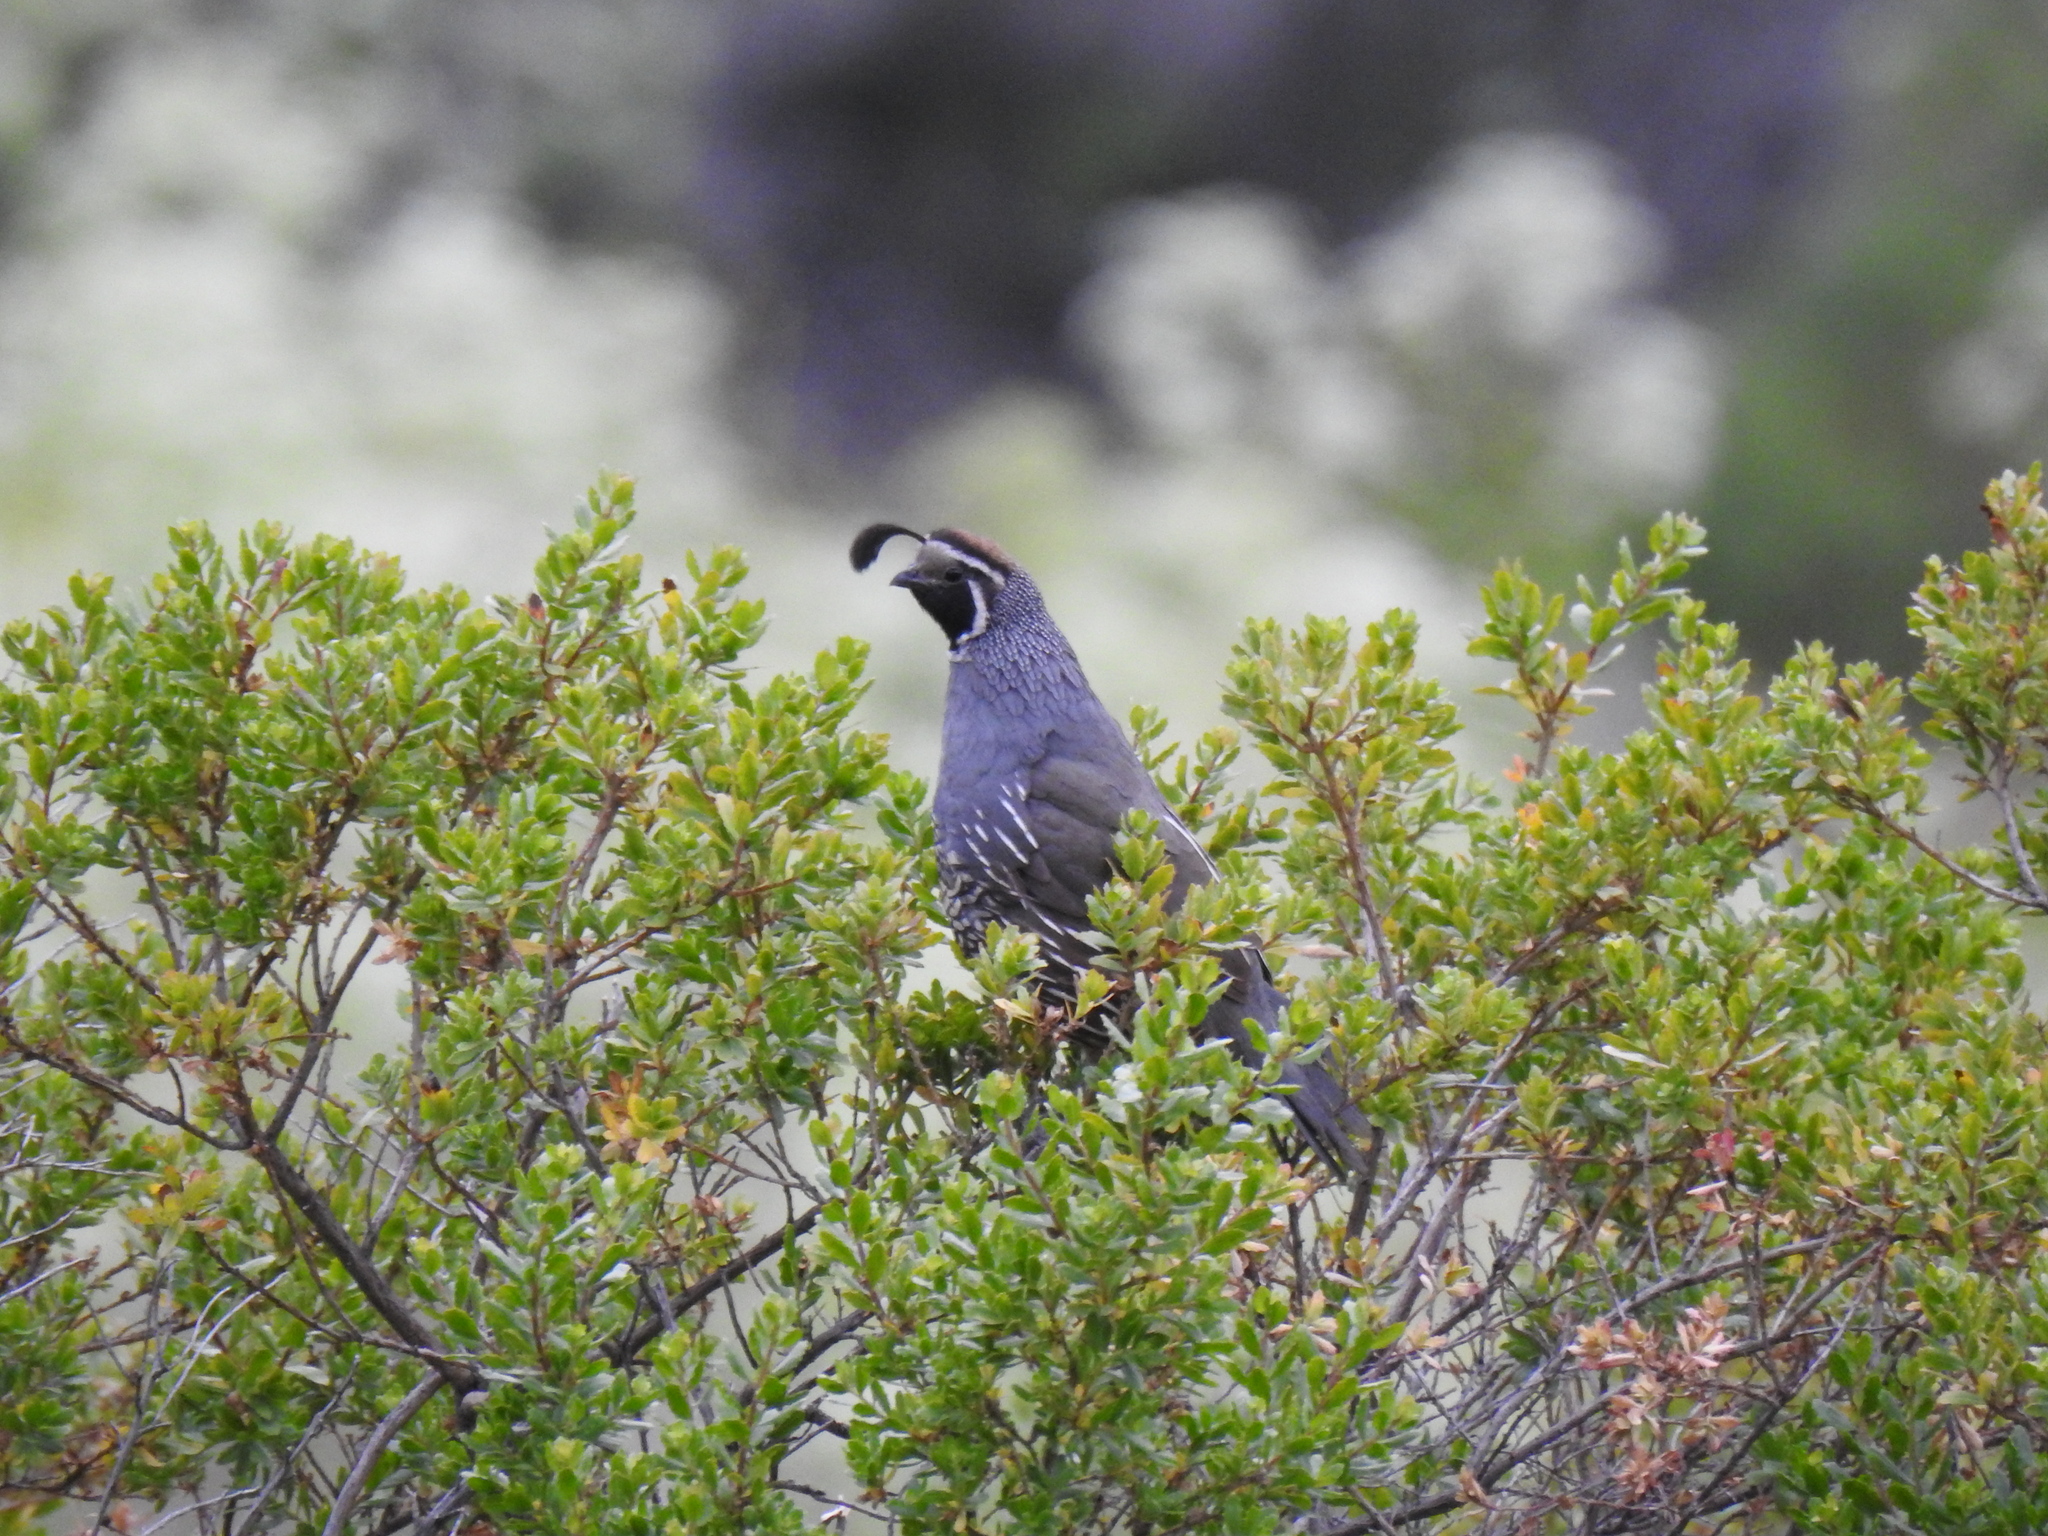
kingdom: Animalia
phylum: Chordata
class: Aves
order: Galliformes
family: Odontophoridae
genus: Callipepla
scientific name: Callipepla californica
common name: California quail
